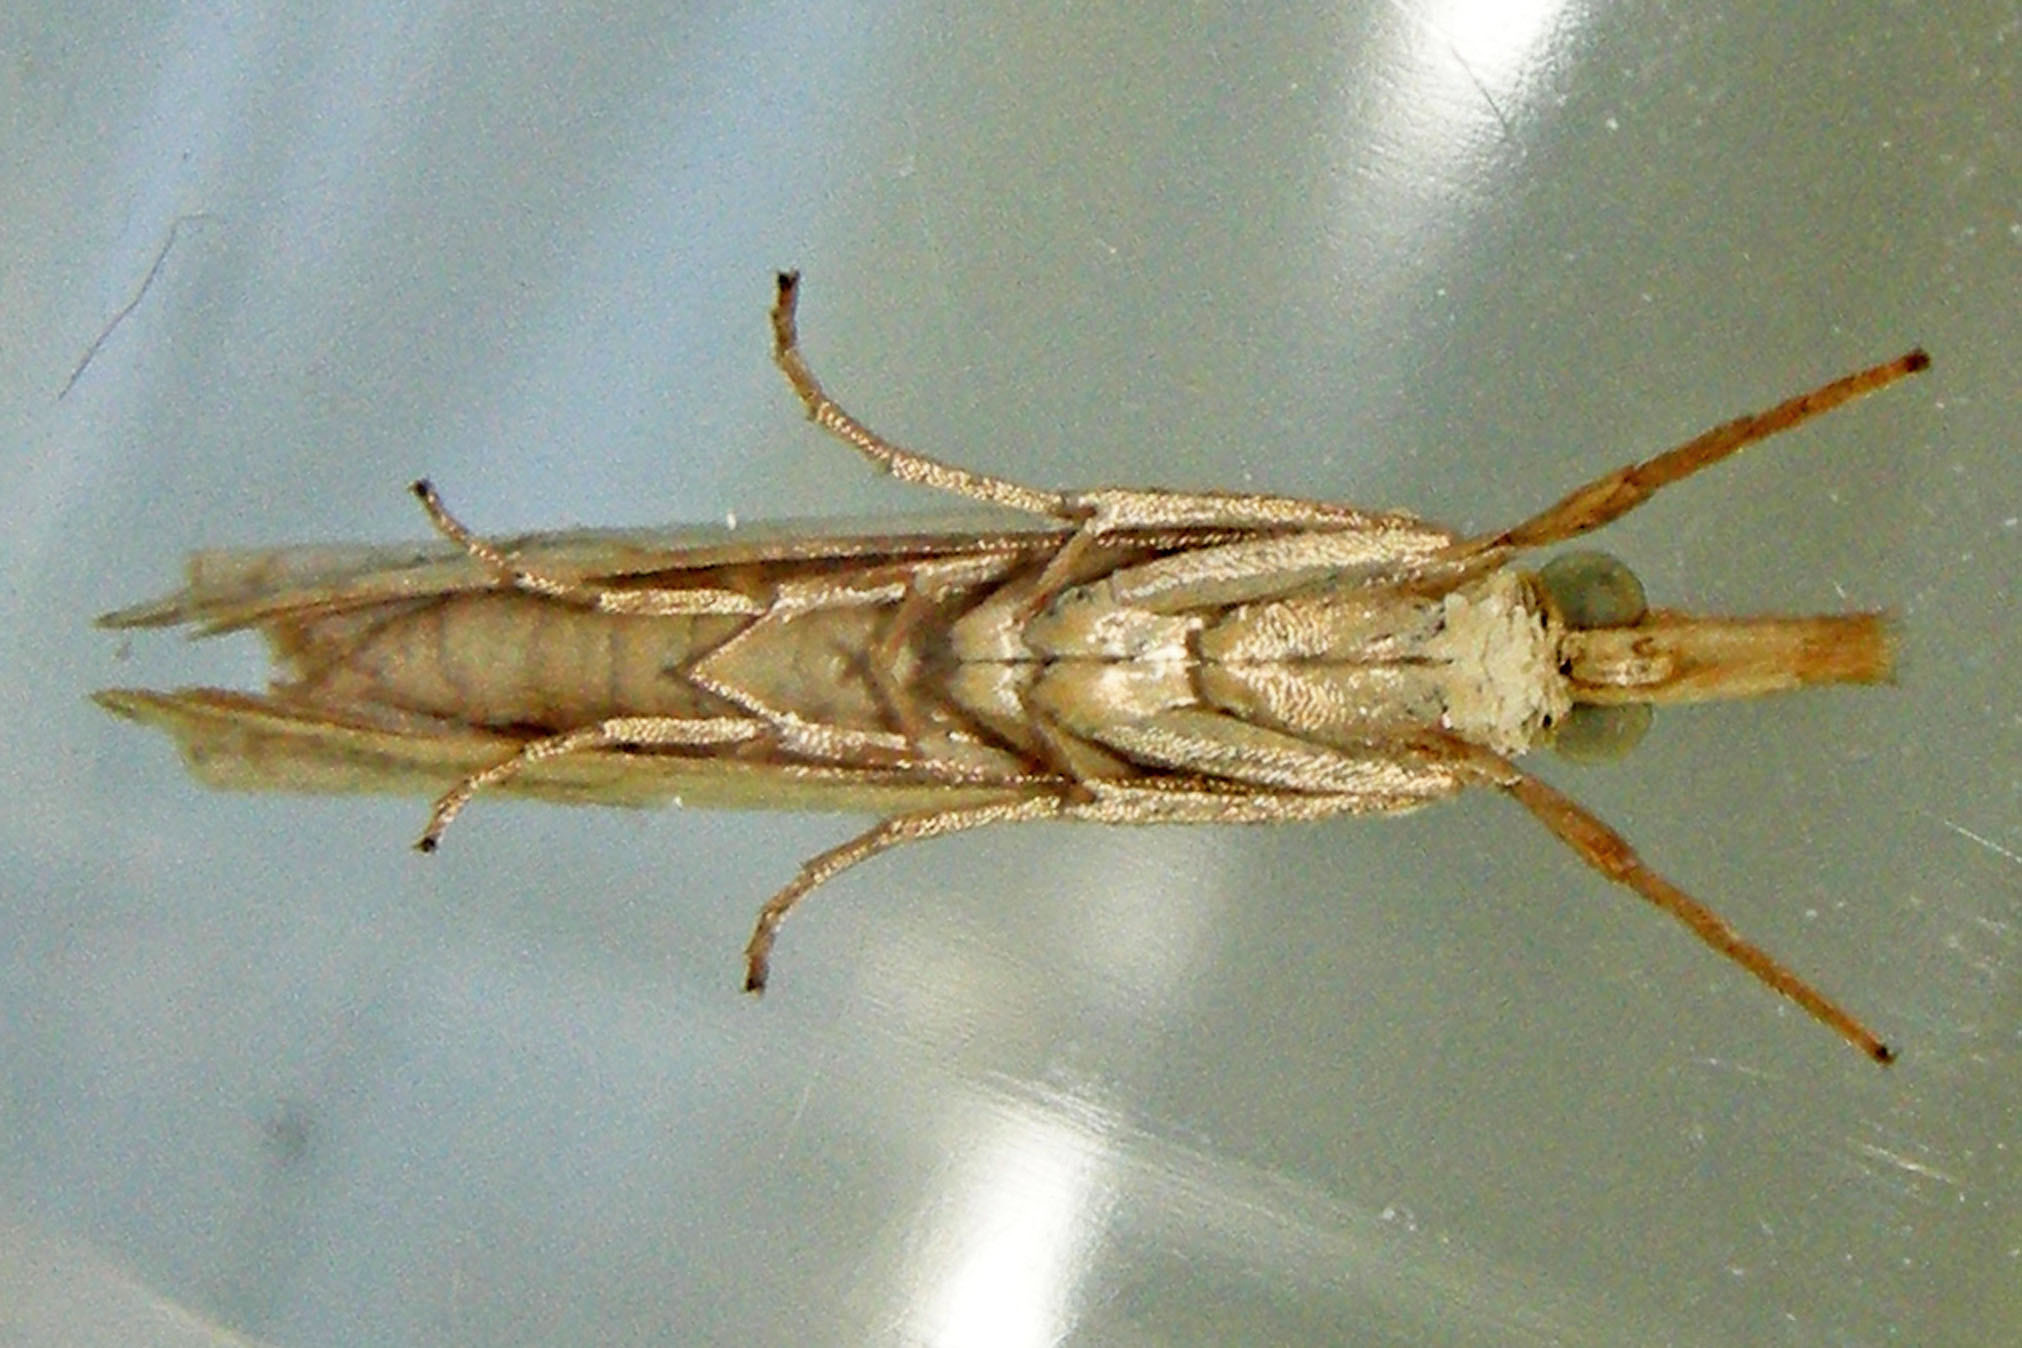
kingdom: Animalia
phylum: Arthropoda
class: Insecta
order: Lepidoptera
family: Crambidae
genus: Crambus
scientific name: Crambus agitatellus
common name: Double-banded grass-veneer
